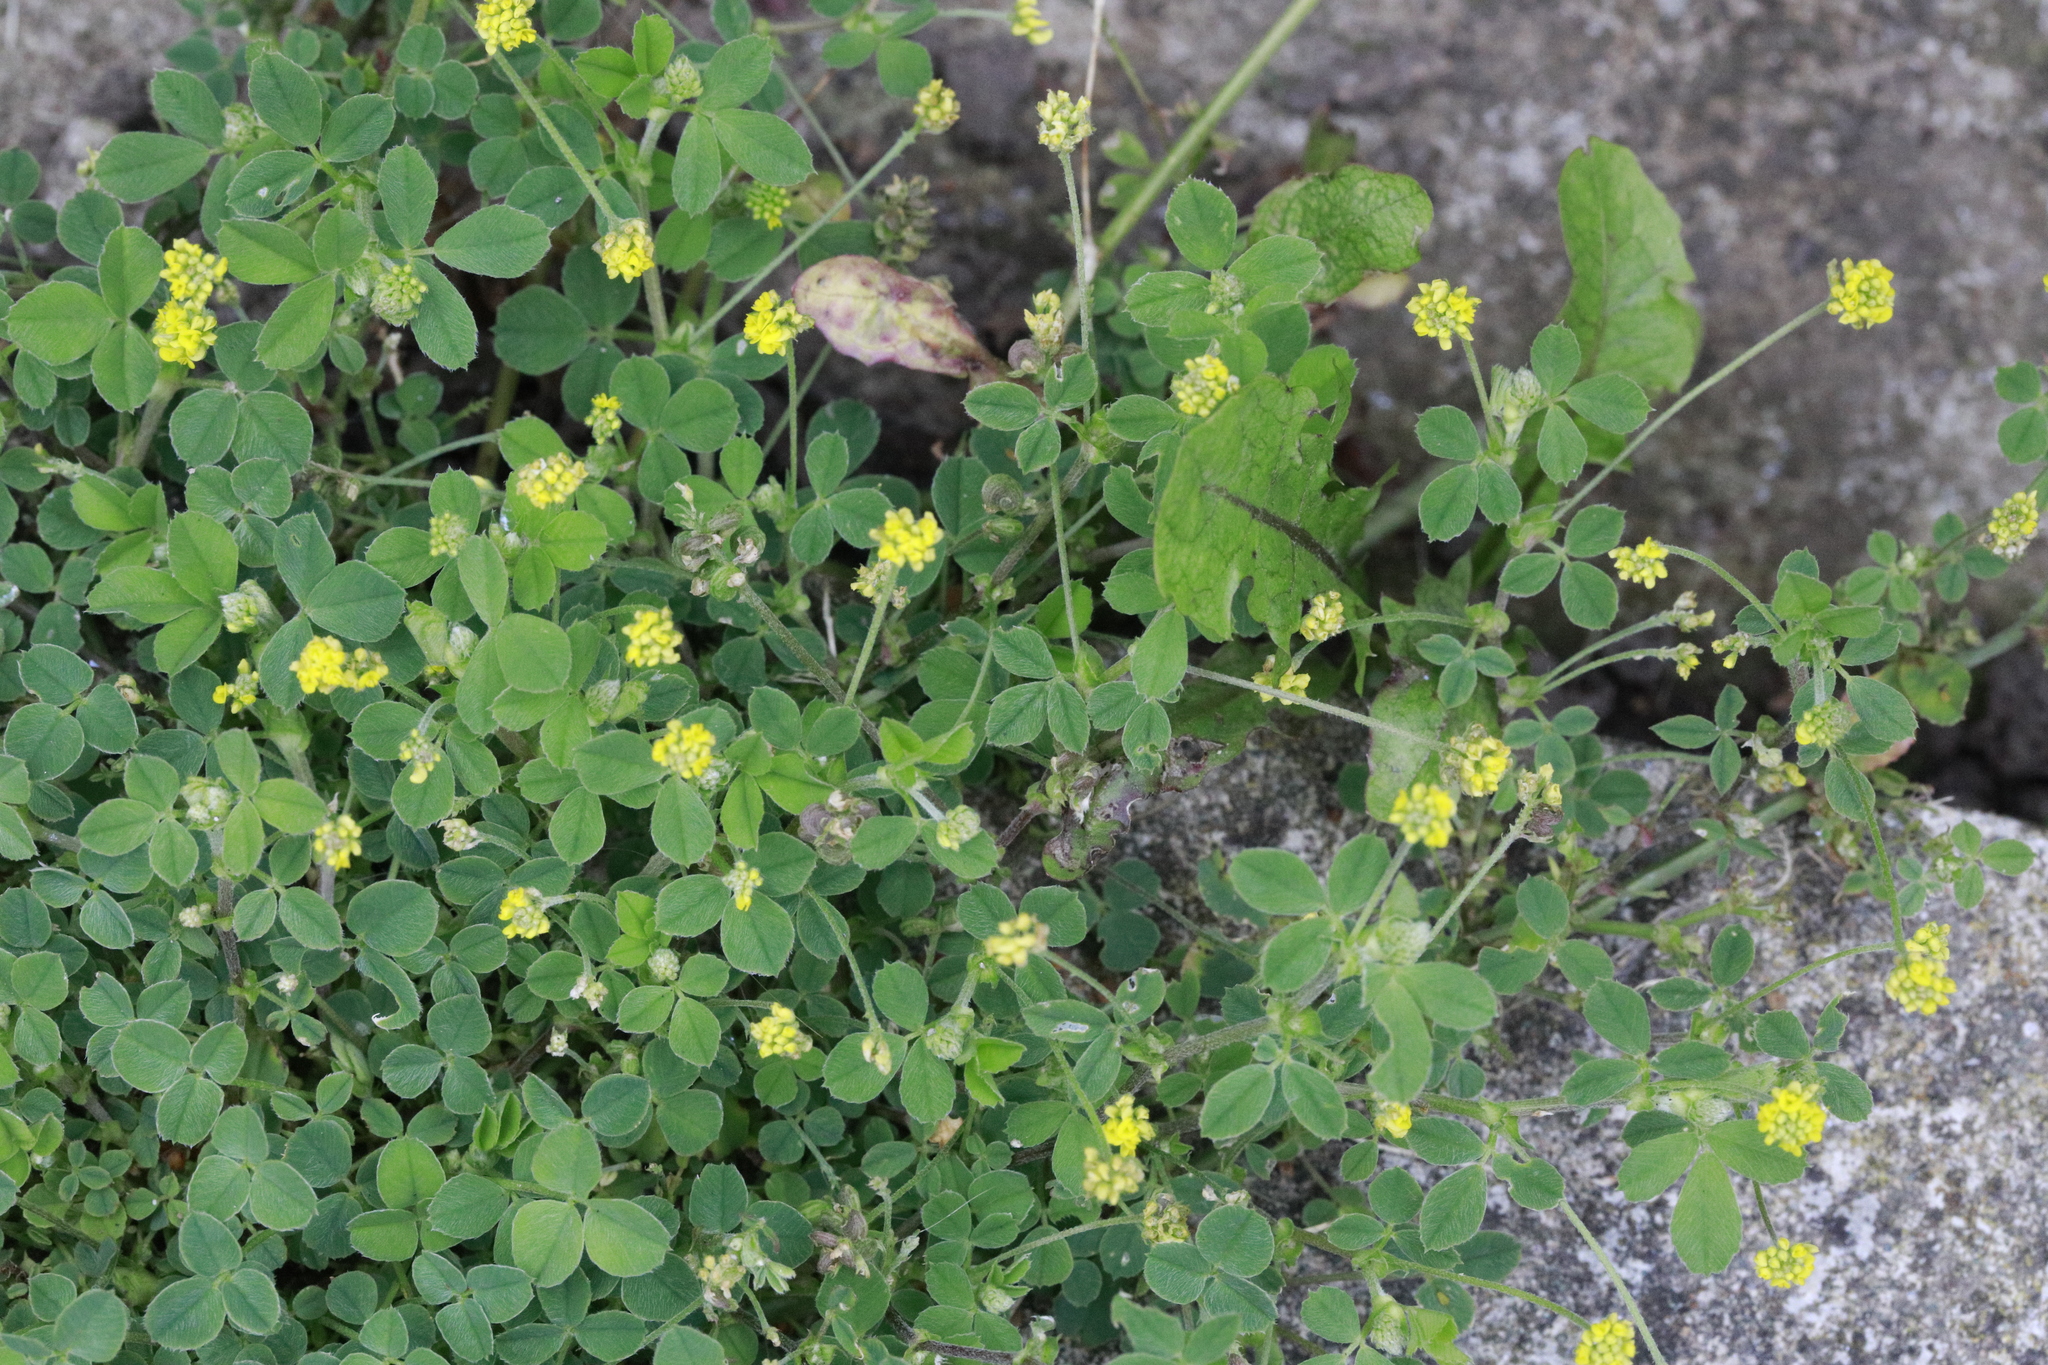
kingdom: Plantae
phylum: Tracheophyta
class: Magnoliopsida
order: Fabales
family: Fabaceae
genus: Medicago
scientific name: Medicago lupulina
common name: Black medick
